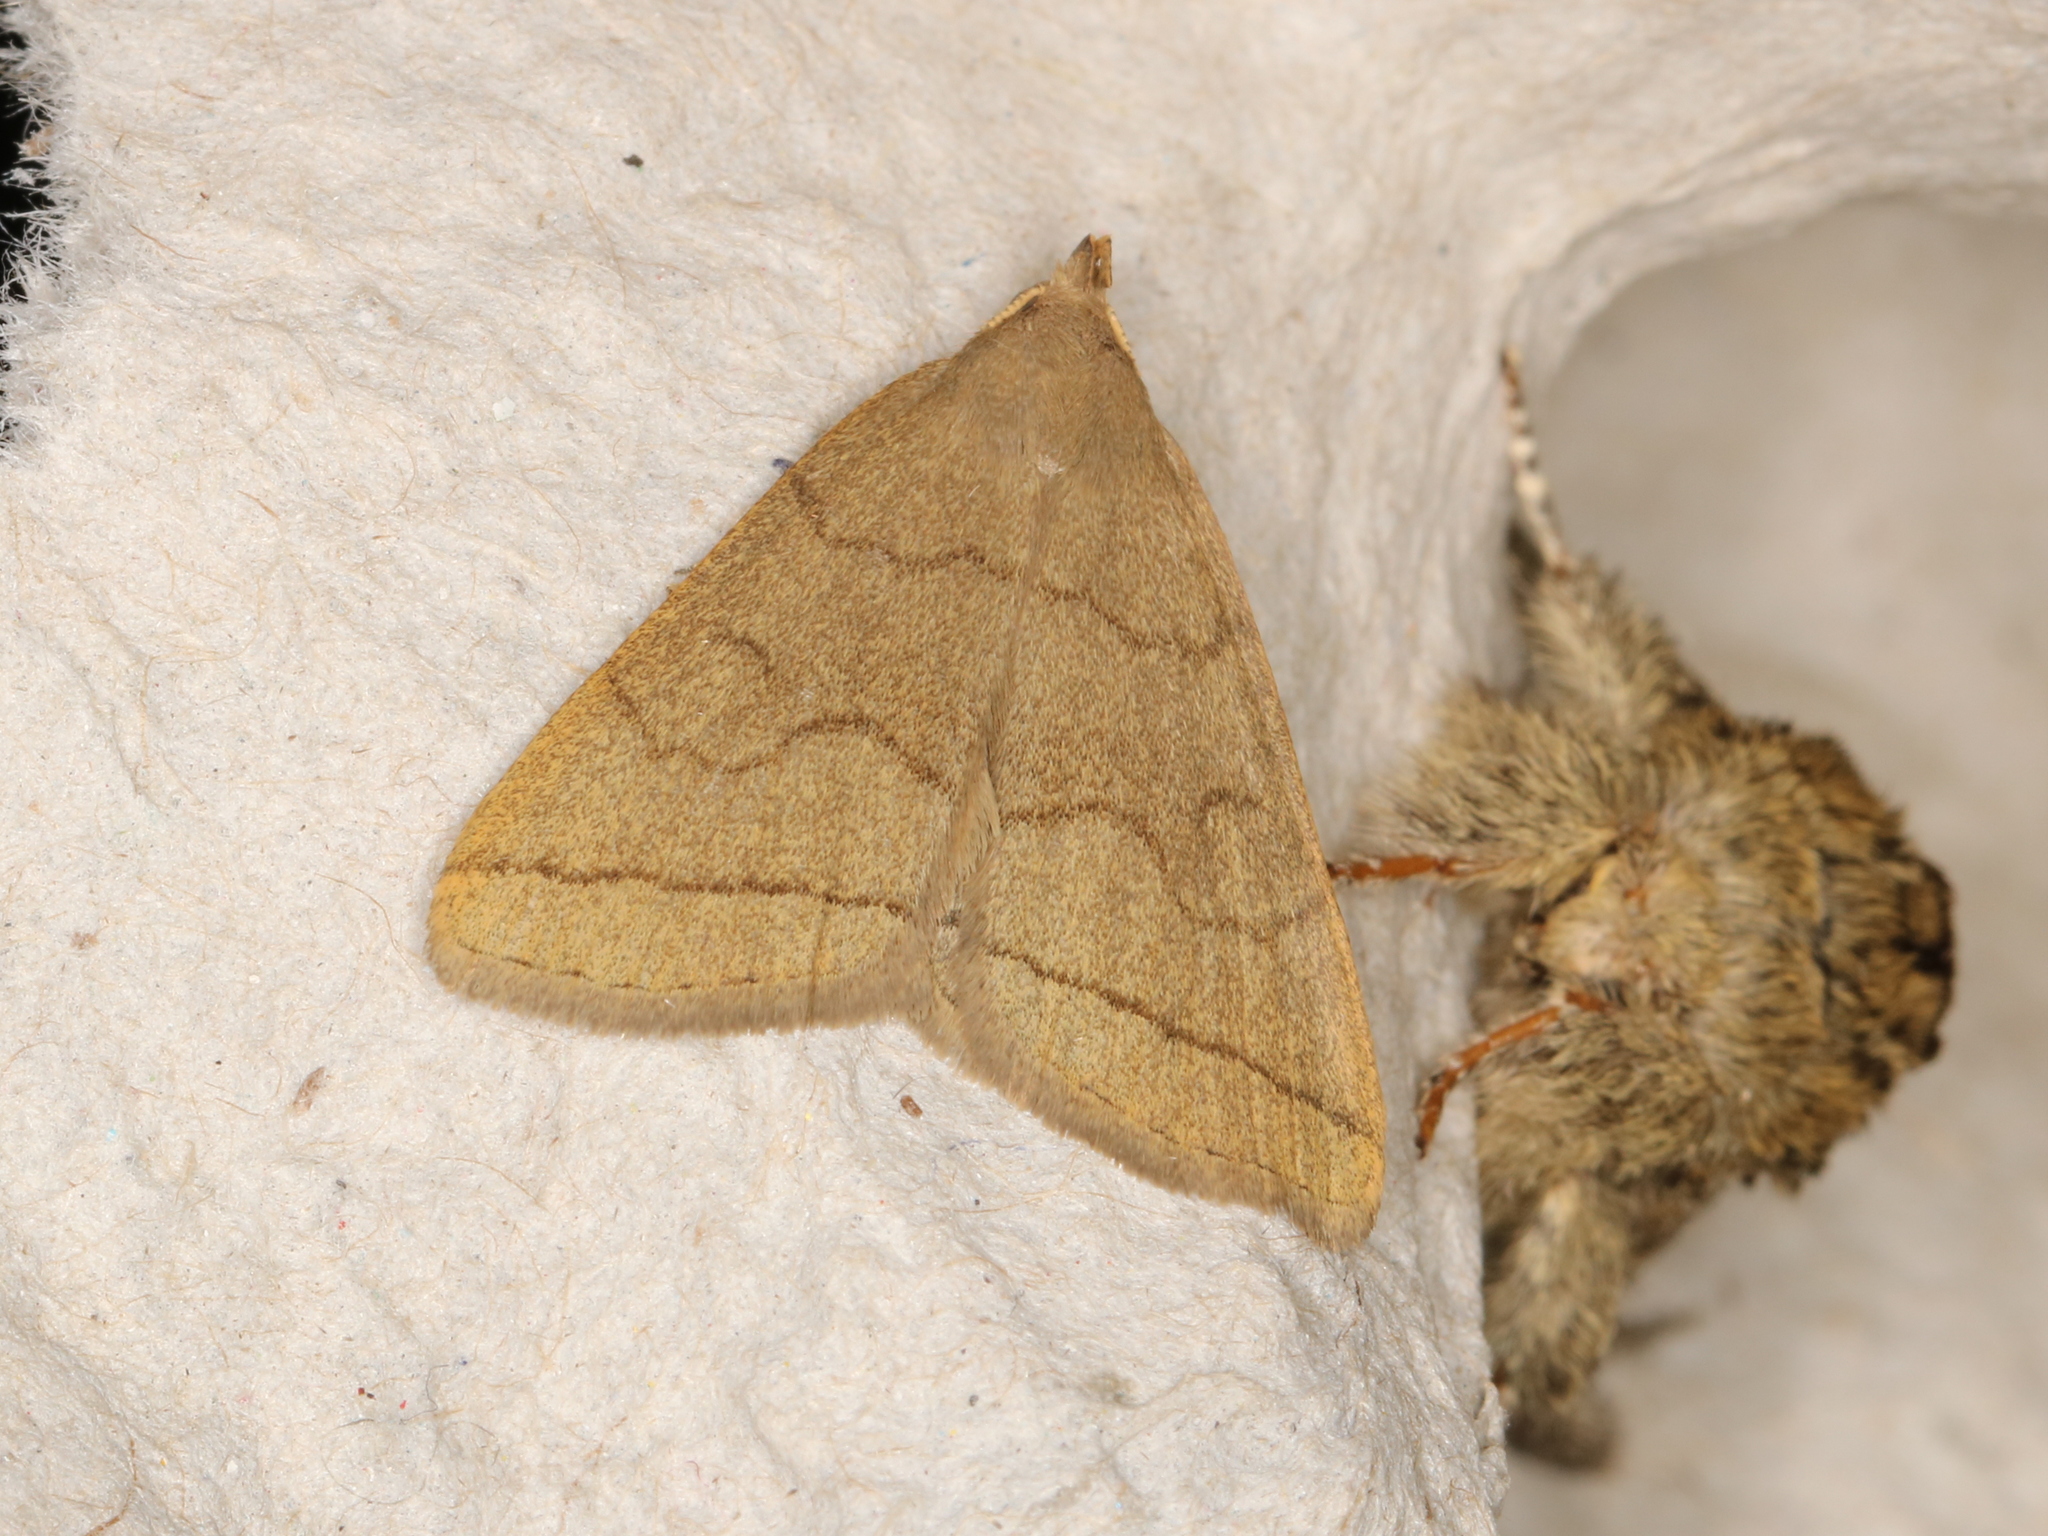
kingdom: Animalia
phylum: Arthropoda
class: Insecta
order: Lepidoptera
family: Erebidae
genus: Herminia
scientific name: Herminia tarsipennalis
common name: Fan-foot
